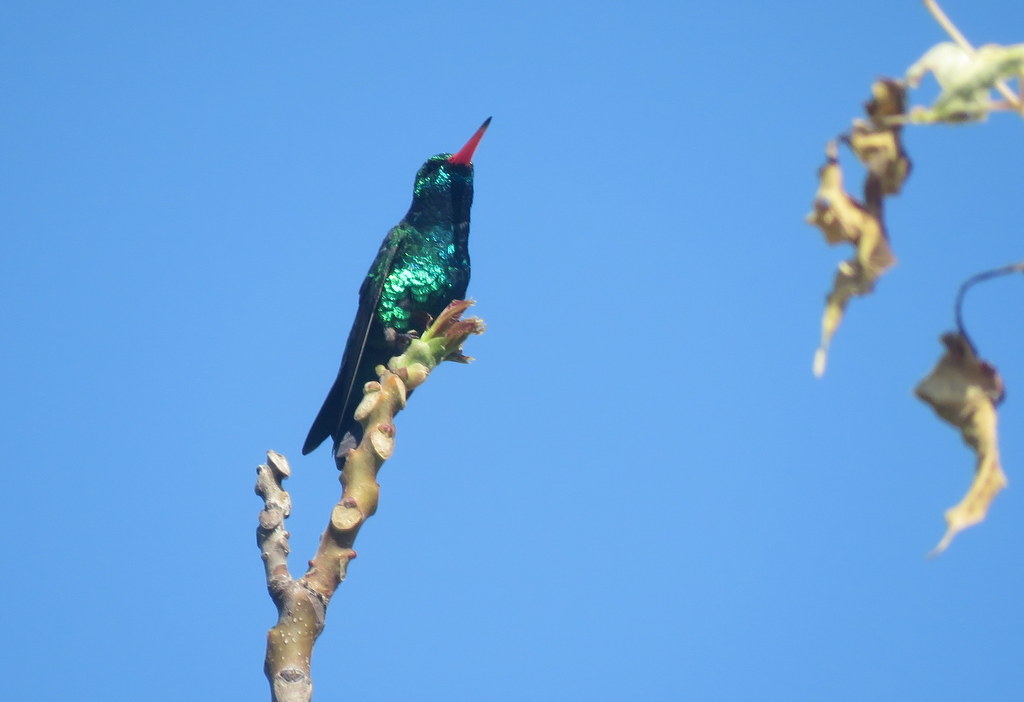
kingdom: Animalia
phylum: Chordata
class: Aves
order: Apodiformes
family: Trochilidae
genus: Chlorostilbon
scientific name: Chlorostilbon lucidus
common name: Glittering-bellied emerald
